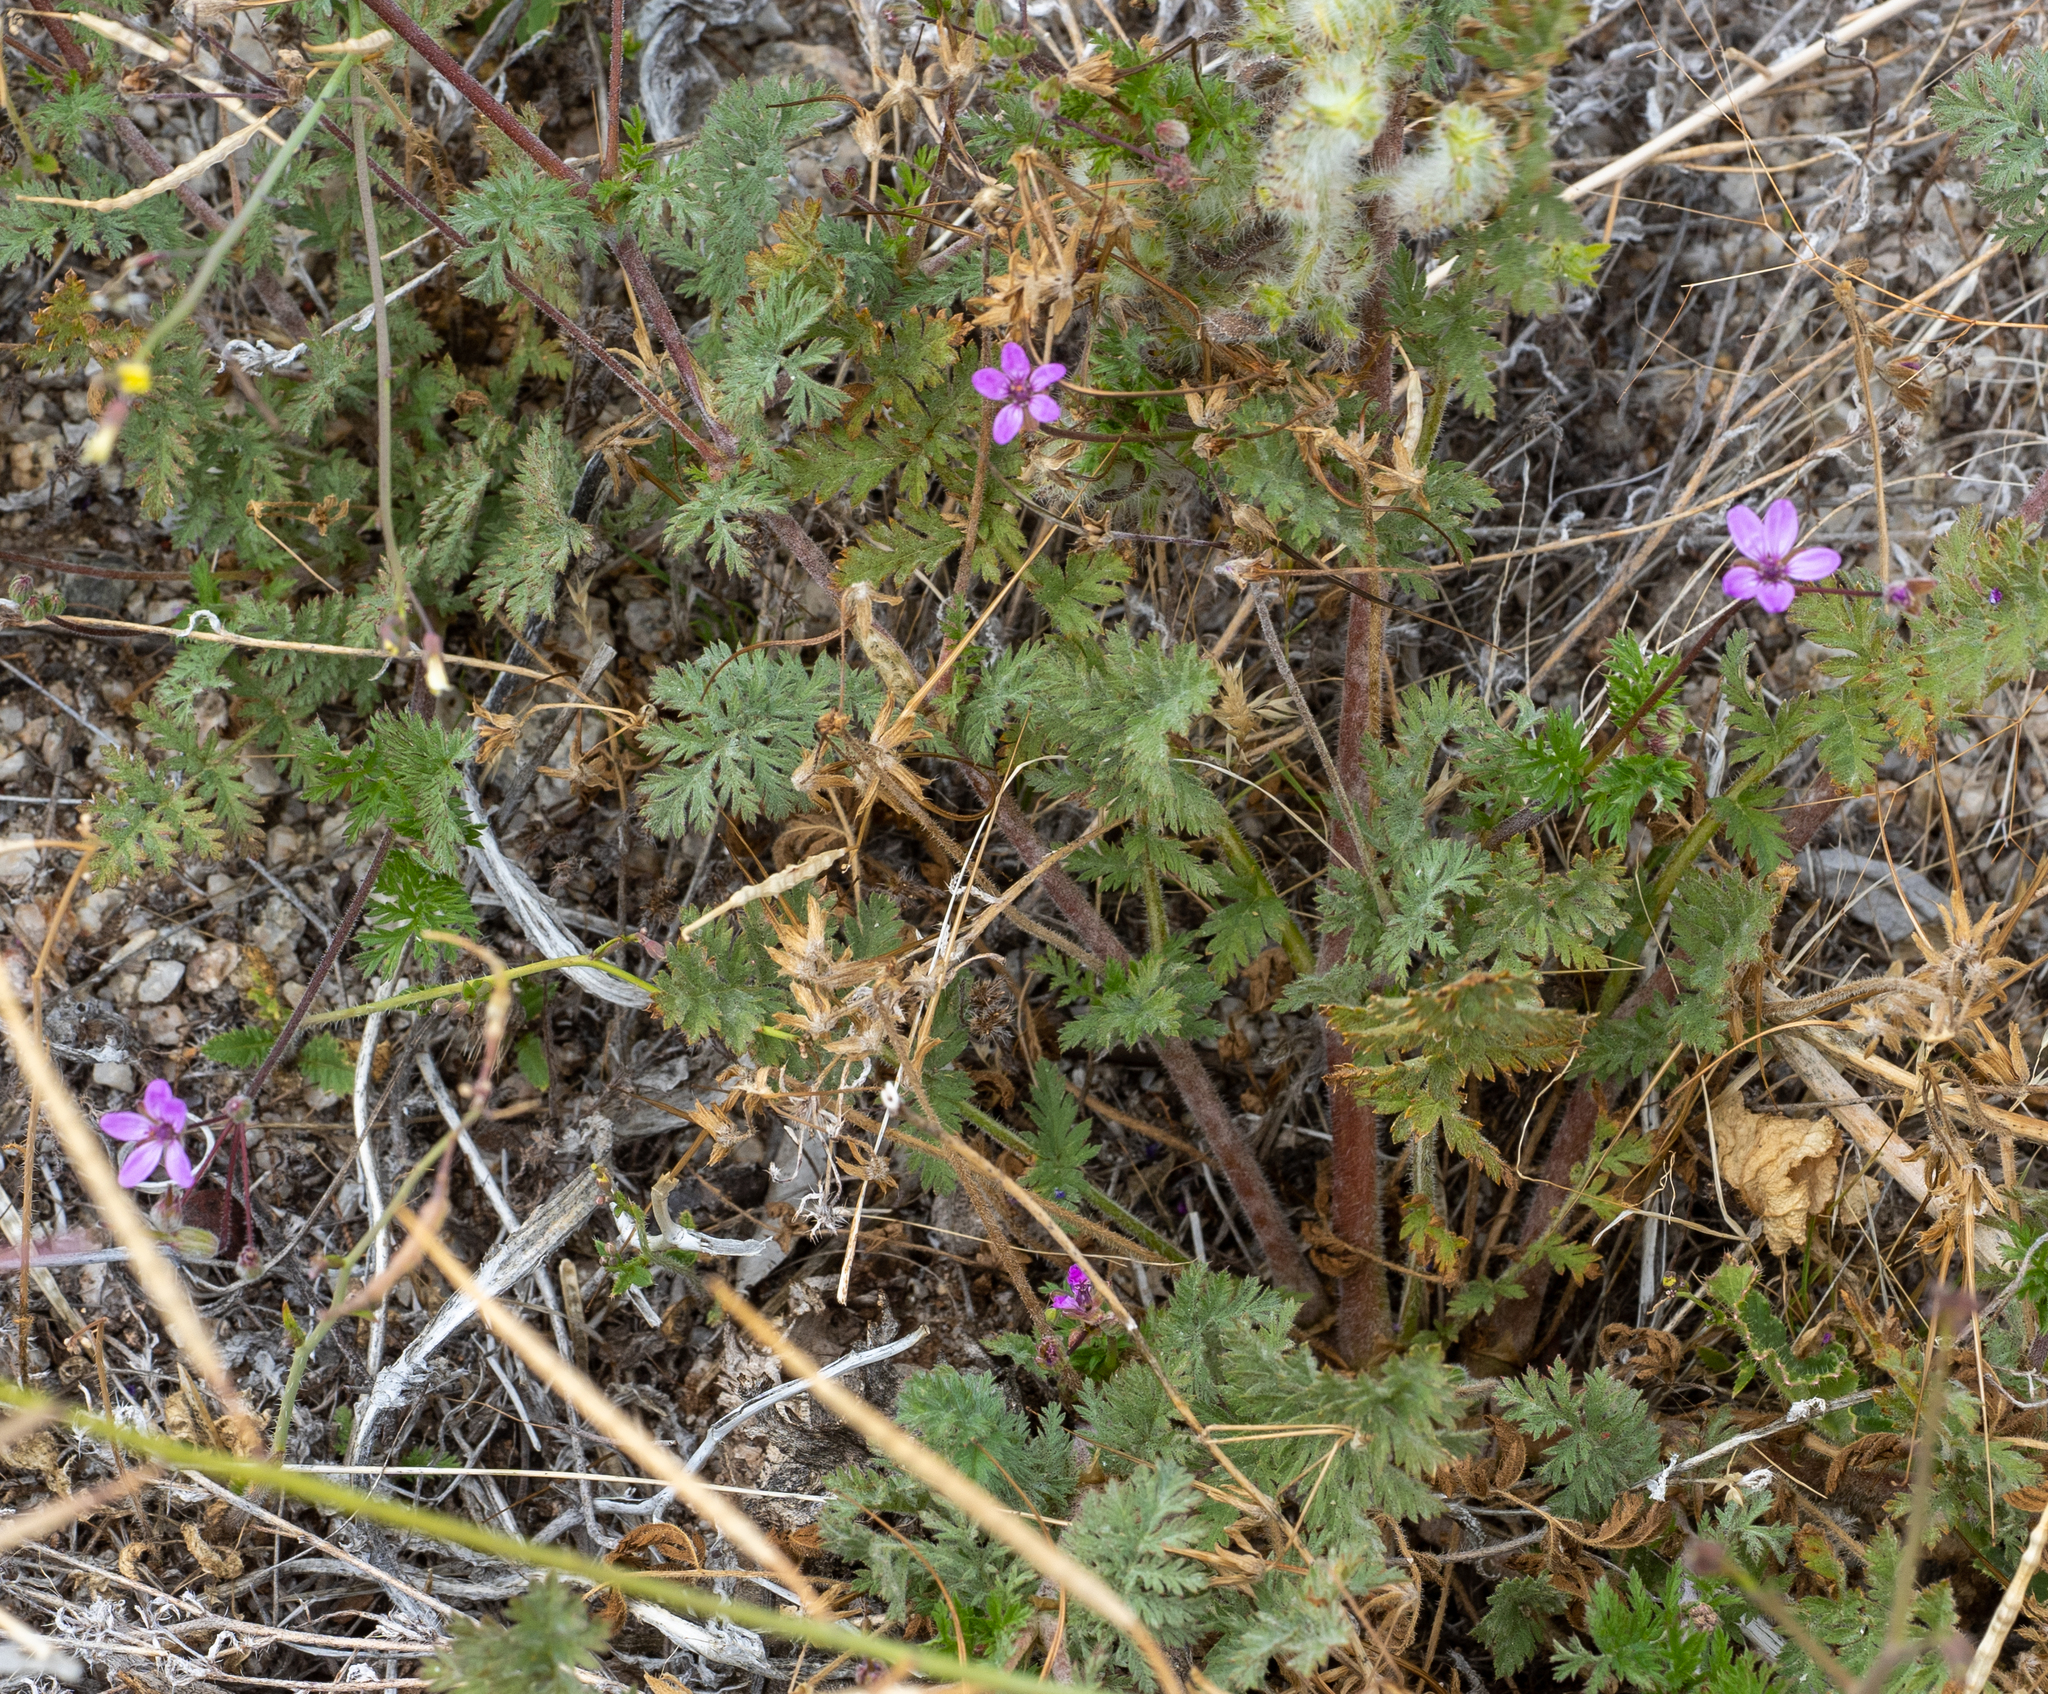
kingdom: Plantae
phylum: Tracheophyta
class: Magnoliopsida
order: Geraniales
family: Geraniaceae
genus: Erodium
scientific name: Erodium cicutarium
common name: Common stork's-bill
